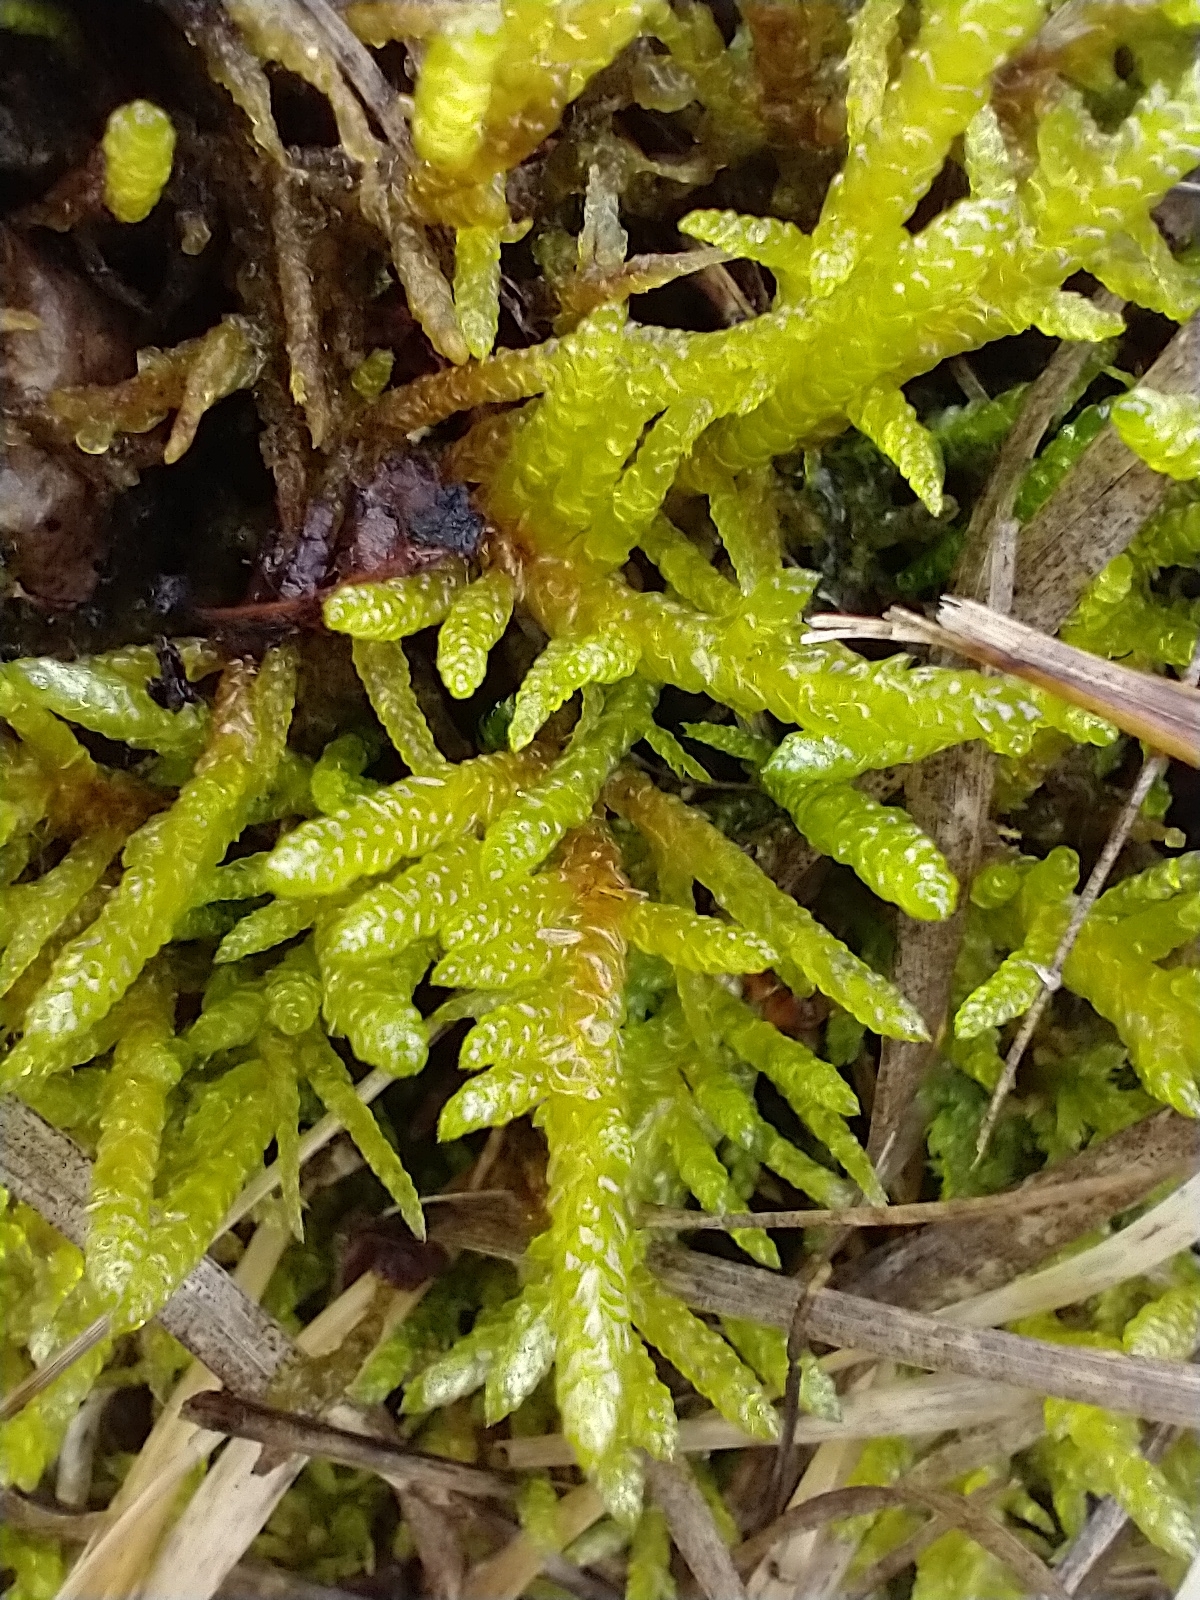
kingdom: Plantae
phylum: Bryophyta
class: Bryopsida
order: Hypnales
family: Brachytheciaceae
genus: Pseudoscleropodium
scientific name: Pseudoscleropodium purum
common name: Neat feather-moss
